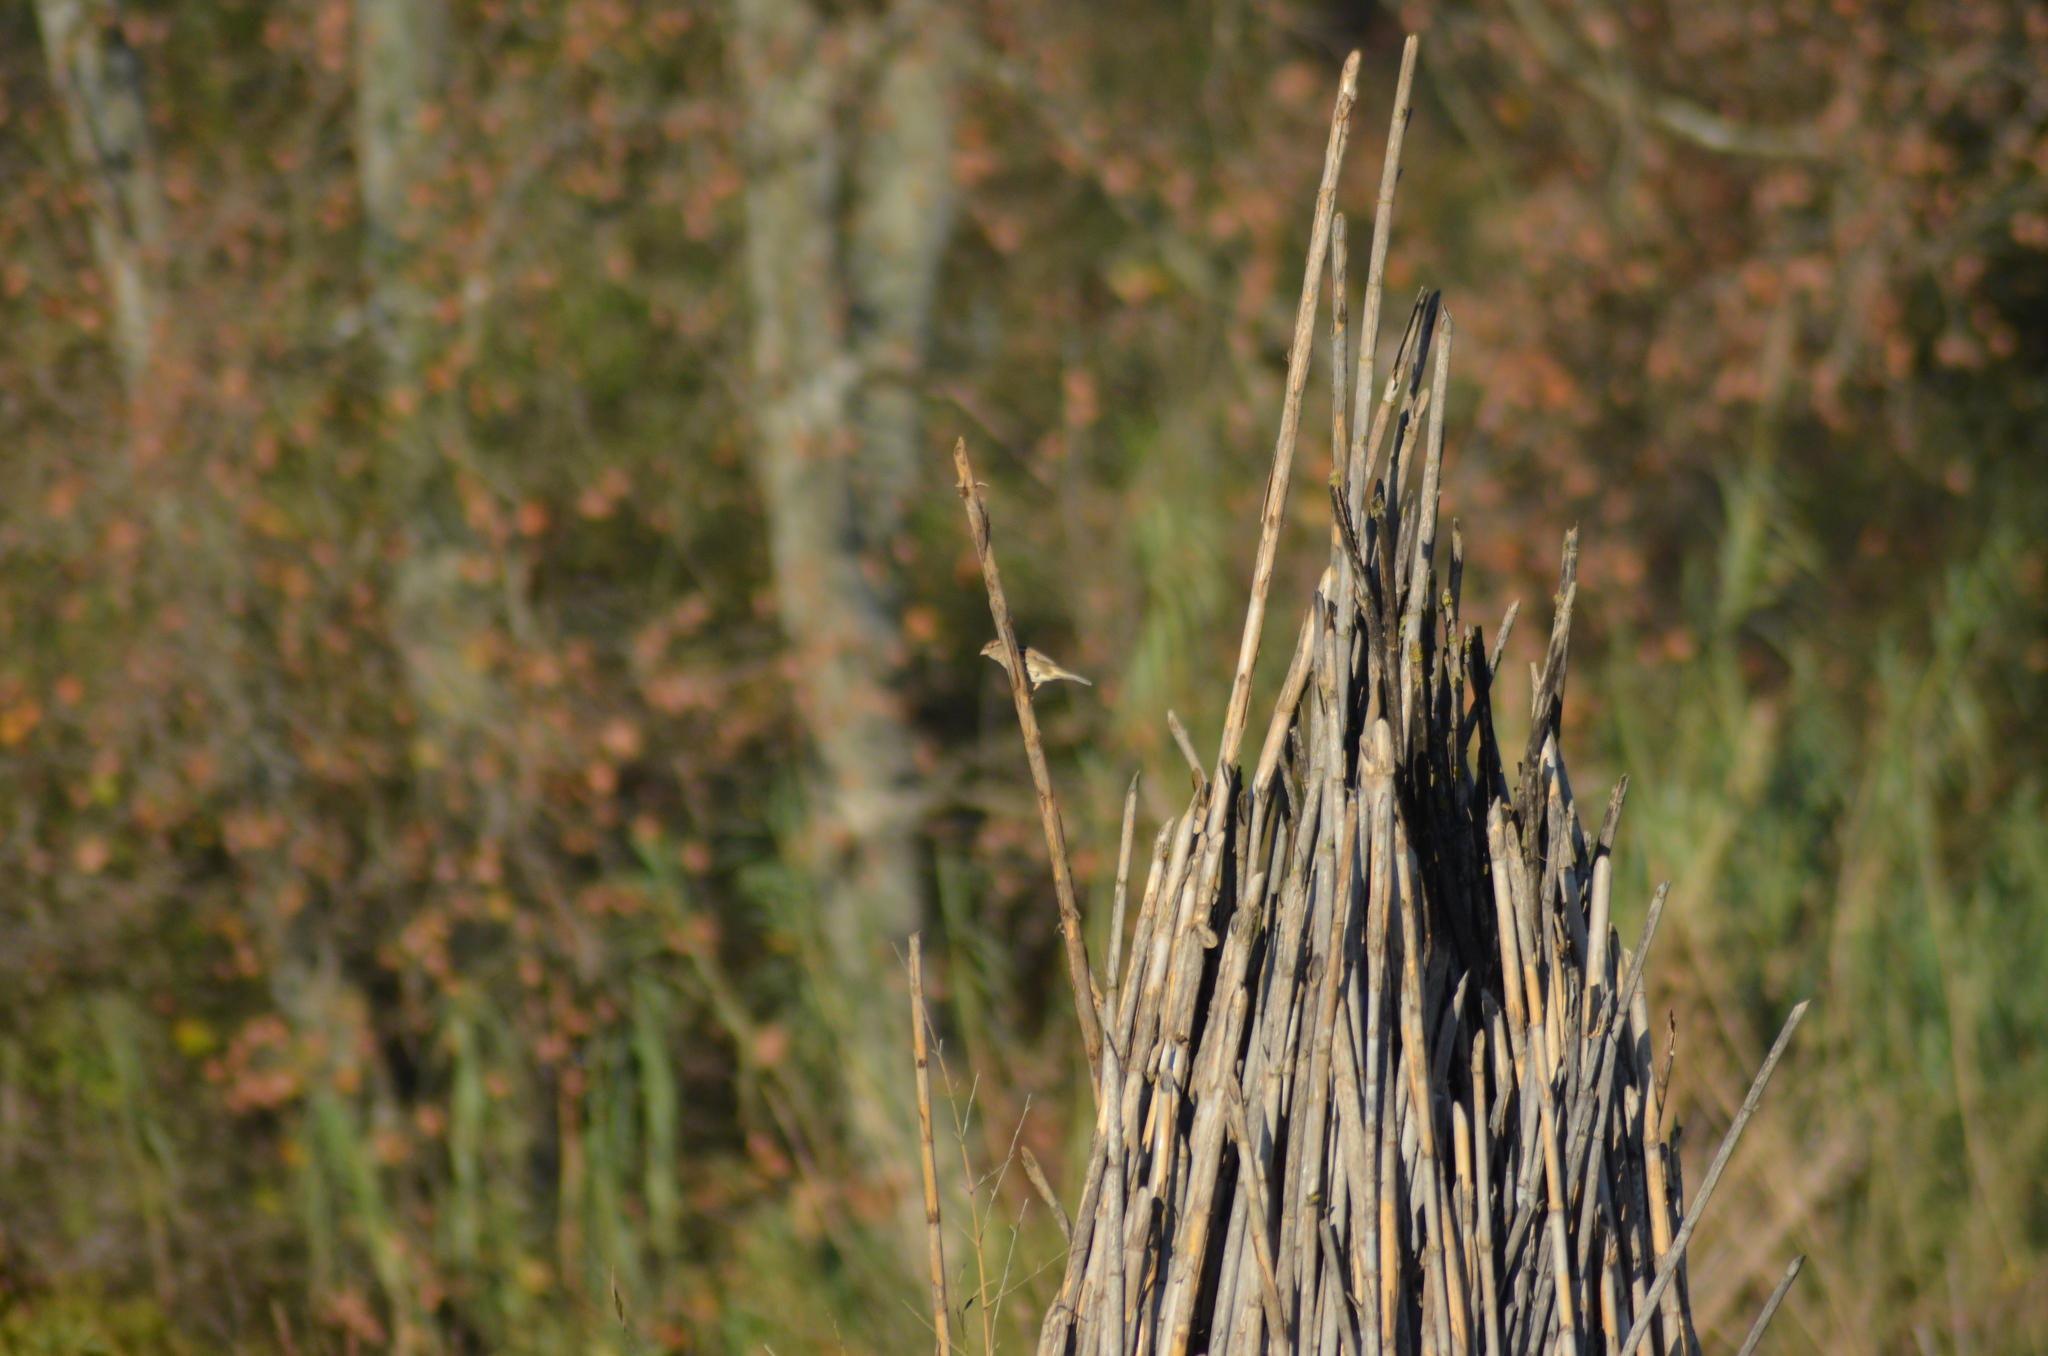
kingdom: Animalia
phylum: Chordata
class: Aves
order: Passeriformes
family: Passeridae
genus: Passer
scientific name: Passer domesticus
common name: House sparrow
